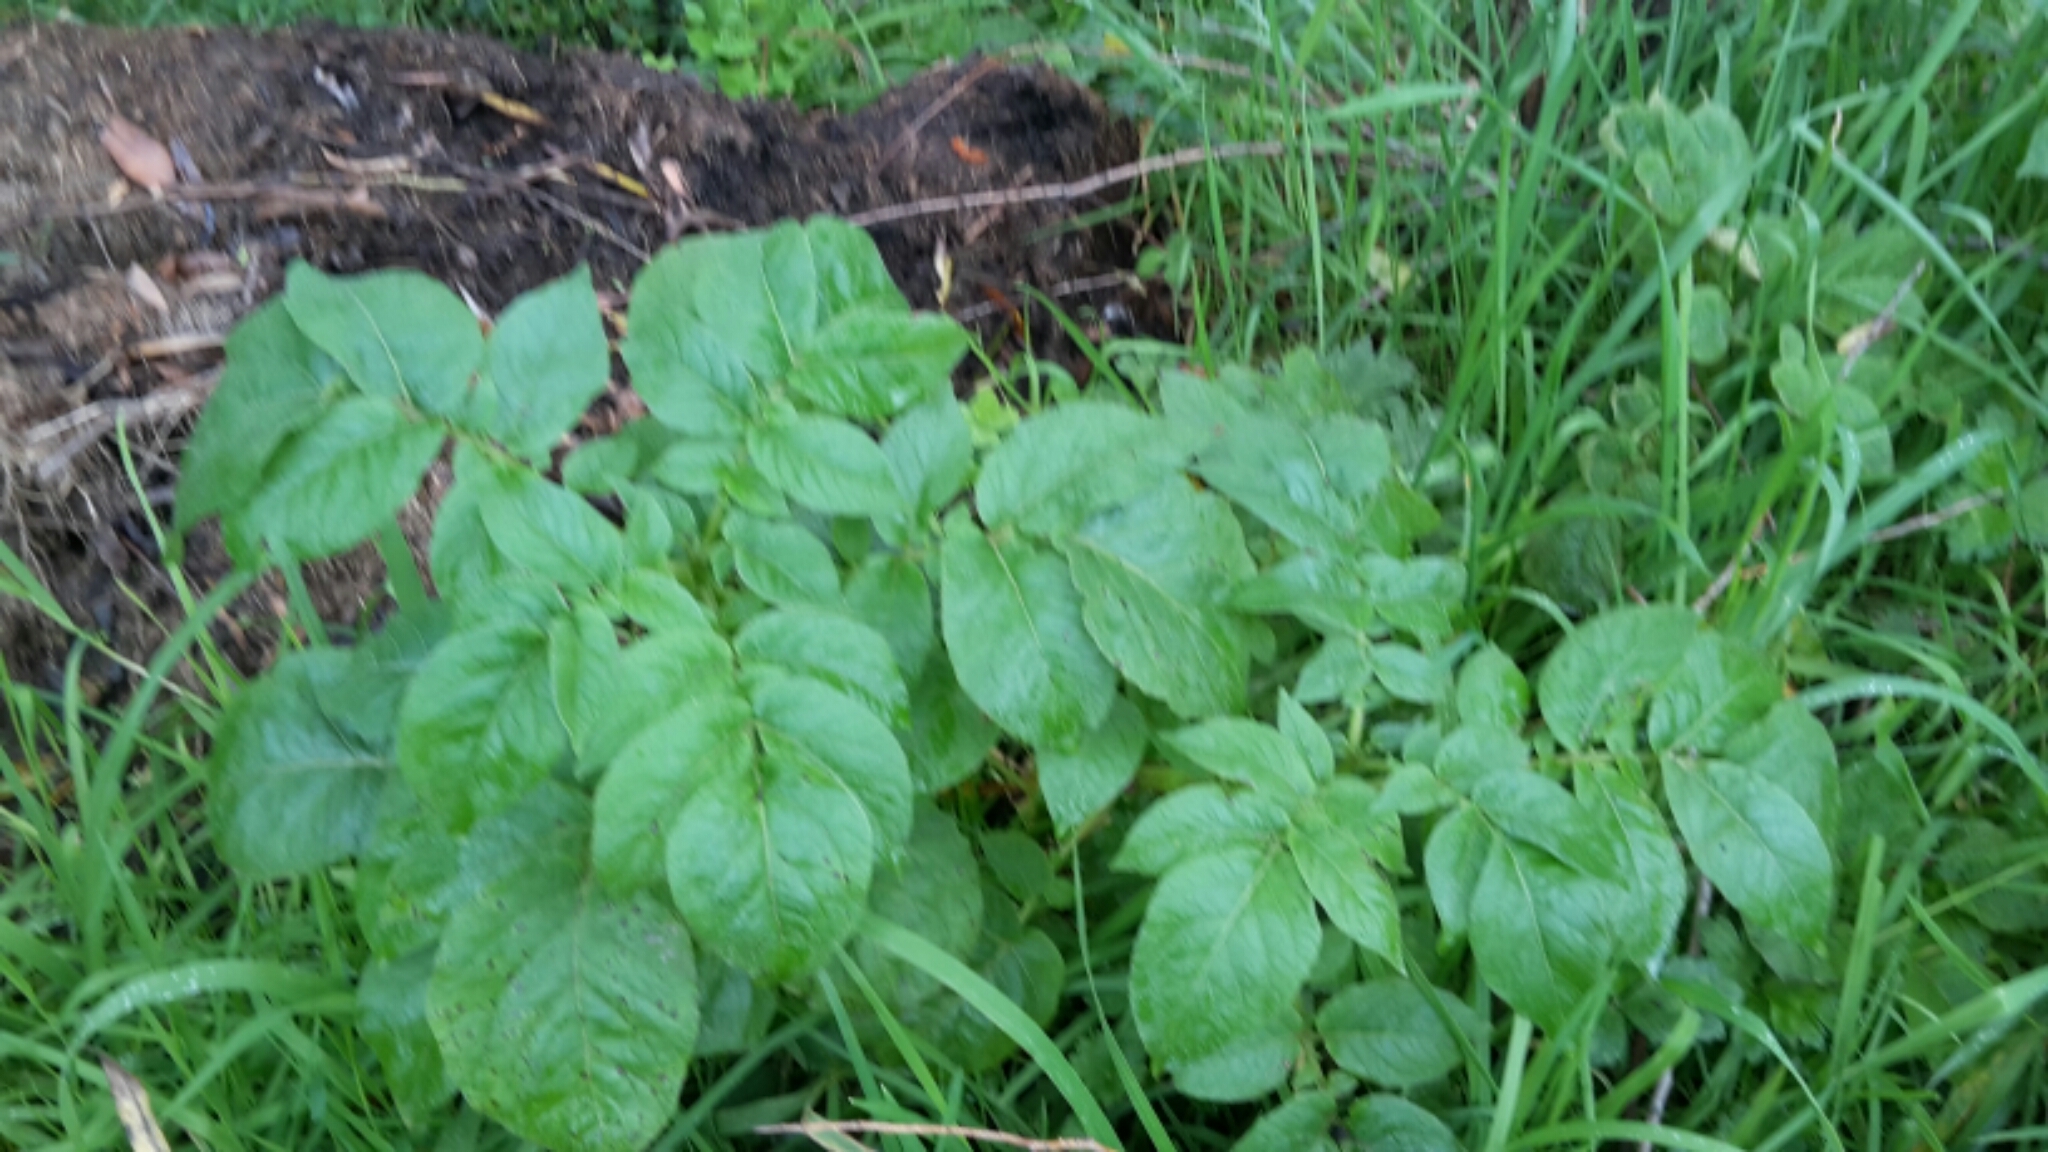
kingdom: Plantae
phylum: Tracheophyta
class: Magnoliopsida
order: Solanales
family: Solanaceae
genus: Solanum
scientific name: Solanum tuberosum
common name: Potato
